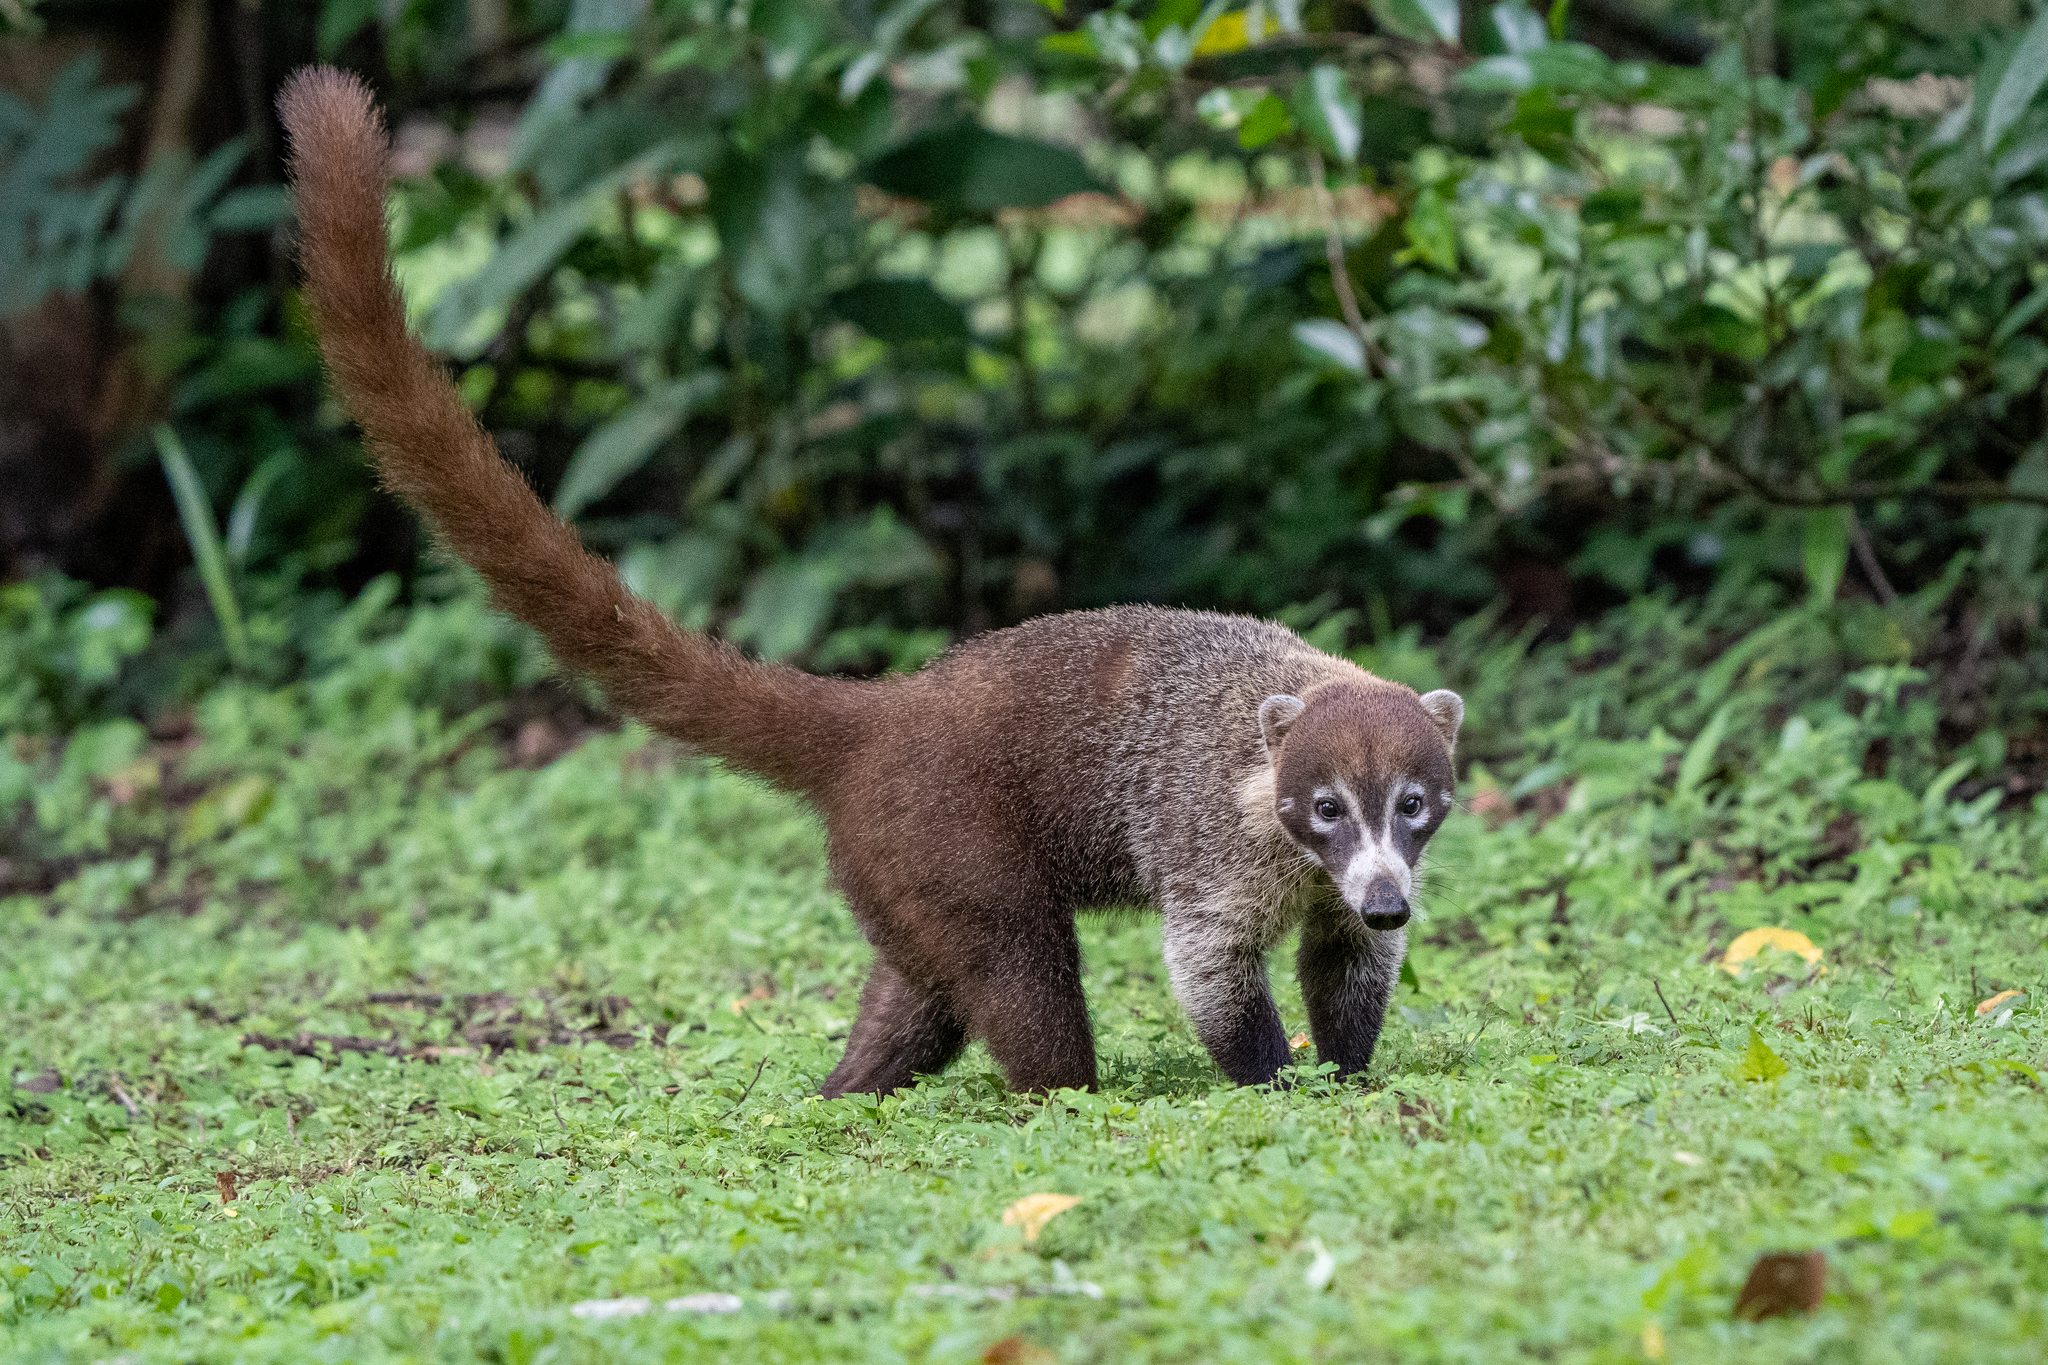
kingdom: Animalia
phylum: Chordata
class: Mammalia
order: Carnivora
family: Procyonidae
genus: Nasua
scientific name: Nasua narica
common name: White-nosed coati
